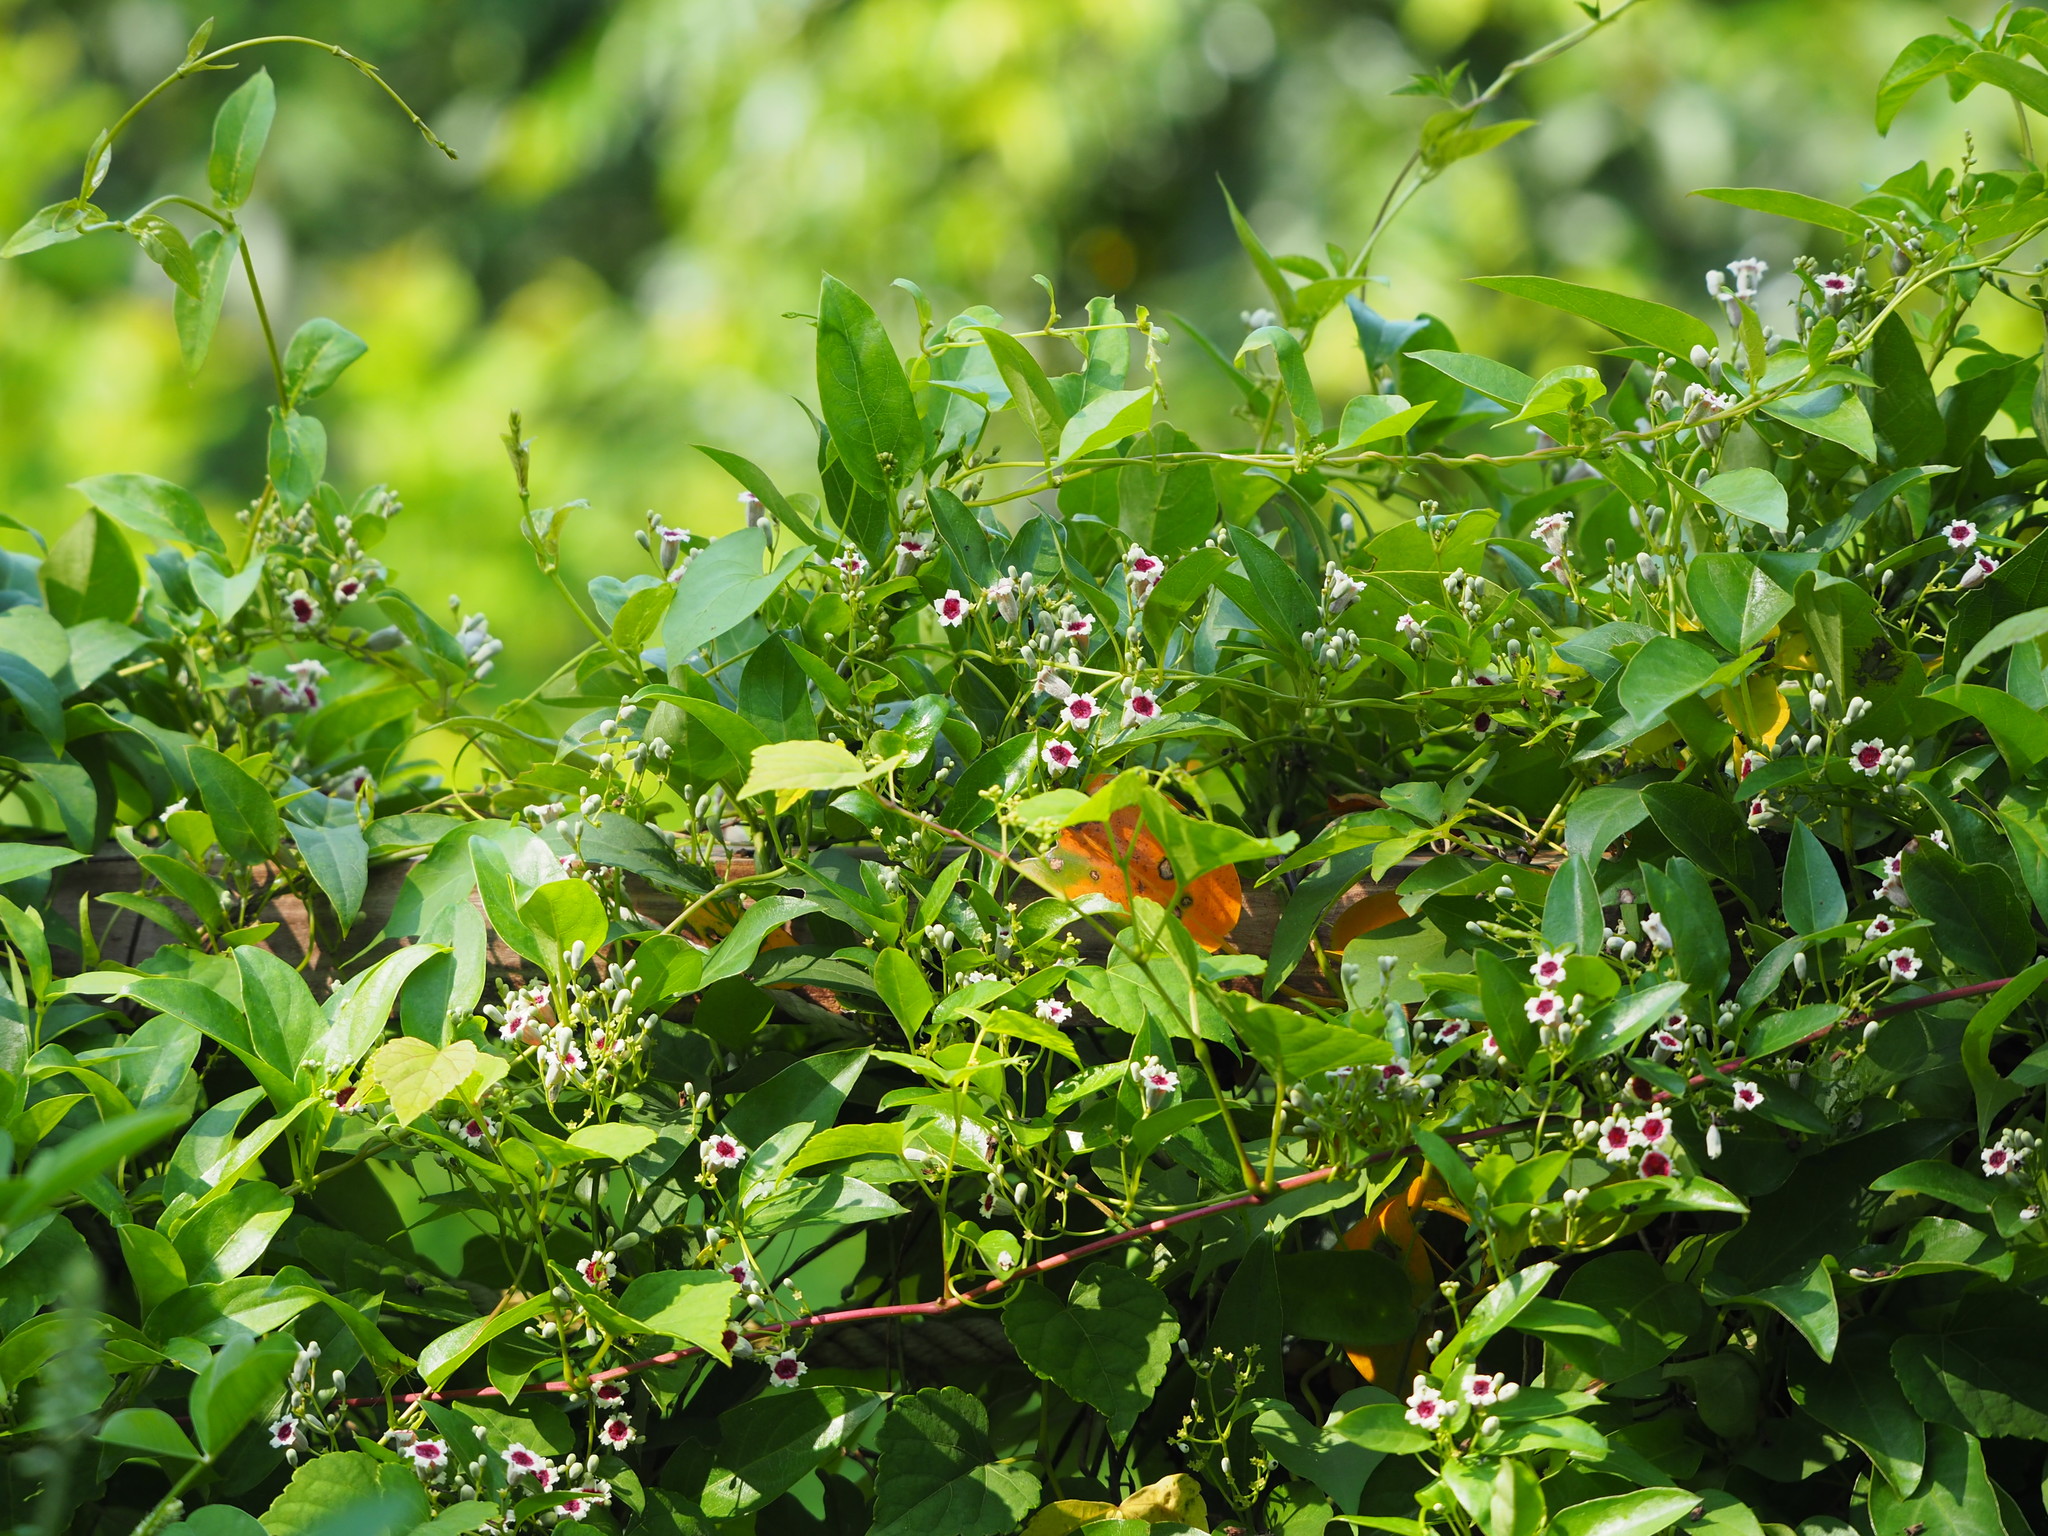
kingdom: Plantae
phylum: Tracheophyta
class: Magnoliopsida
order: Gentianales
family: Rubiaceae
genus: Paederia
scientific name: Paederia foetida
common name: Stinkvine
